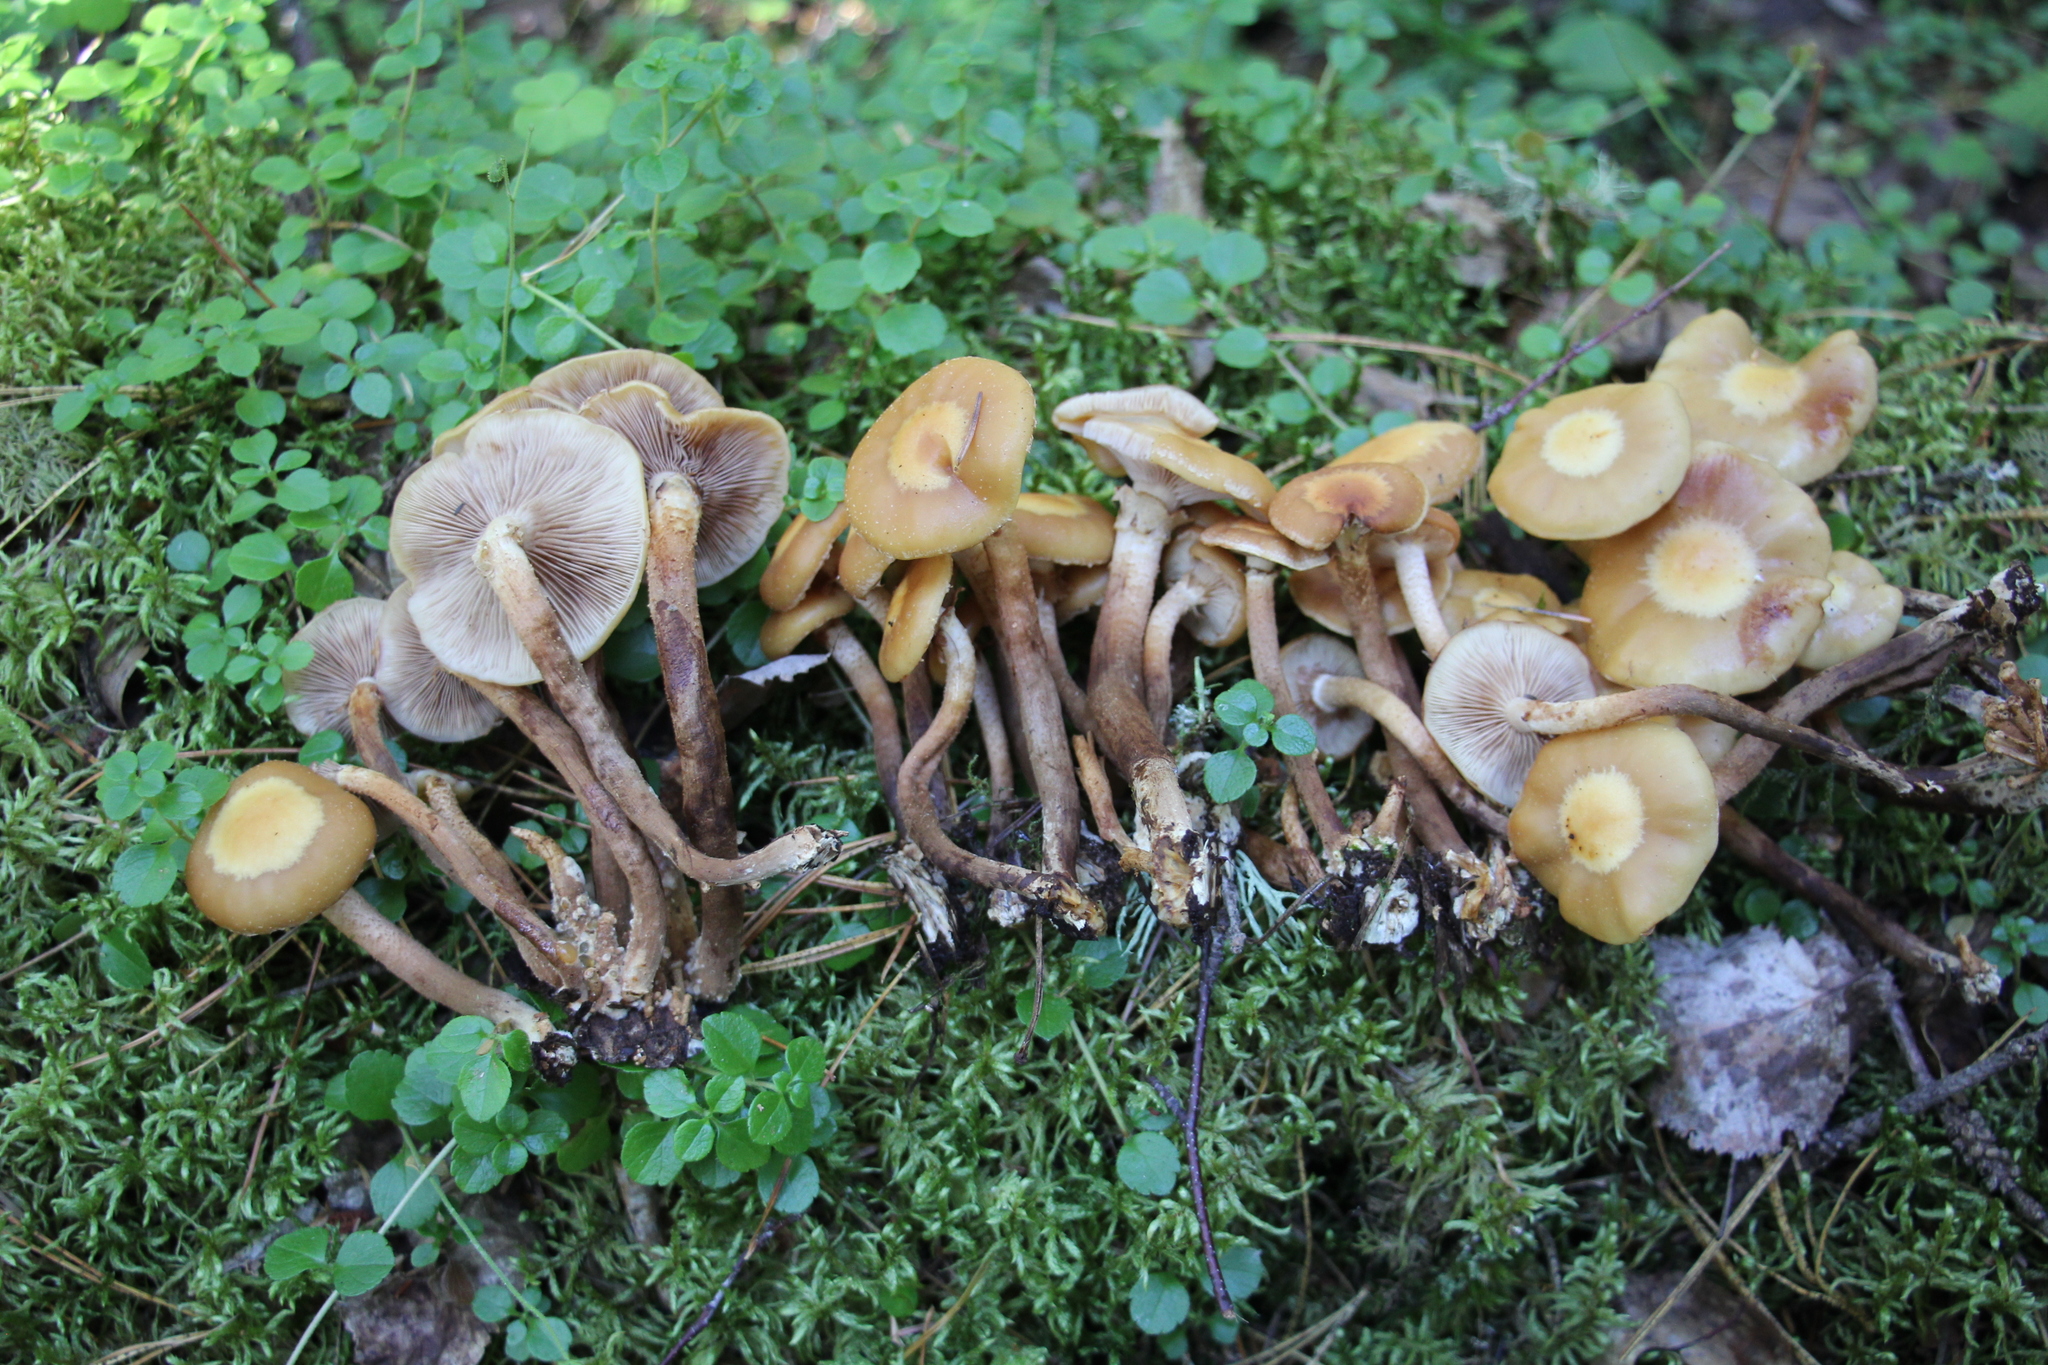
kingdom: Fungi
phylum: Basidiomycota
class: Agaricomycetes
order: Agaricales
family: Strophariaceae
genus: Kuehneromyces
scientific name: Kuehneromyces mutabilis
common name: Sheathed woodtuft
